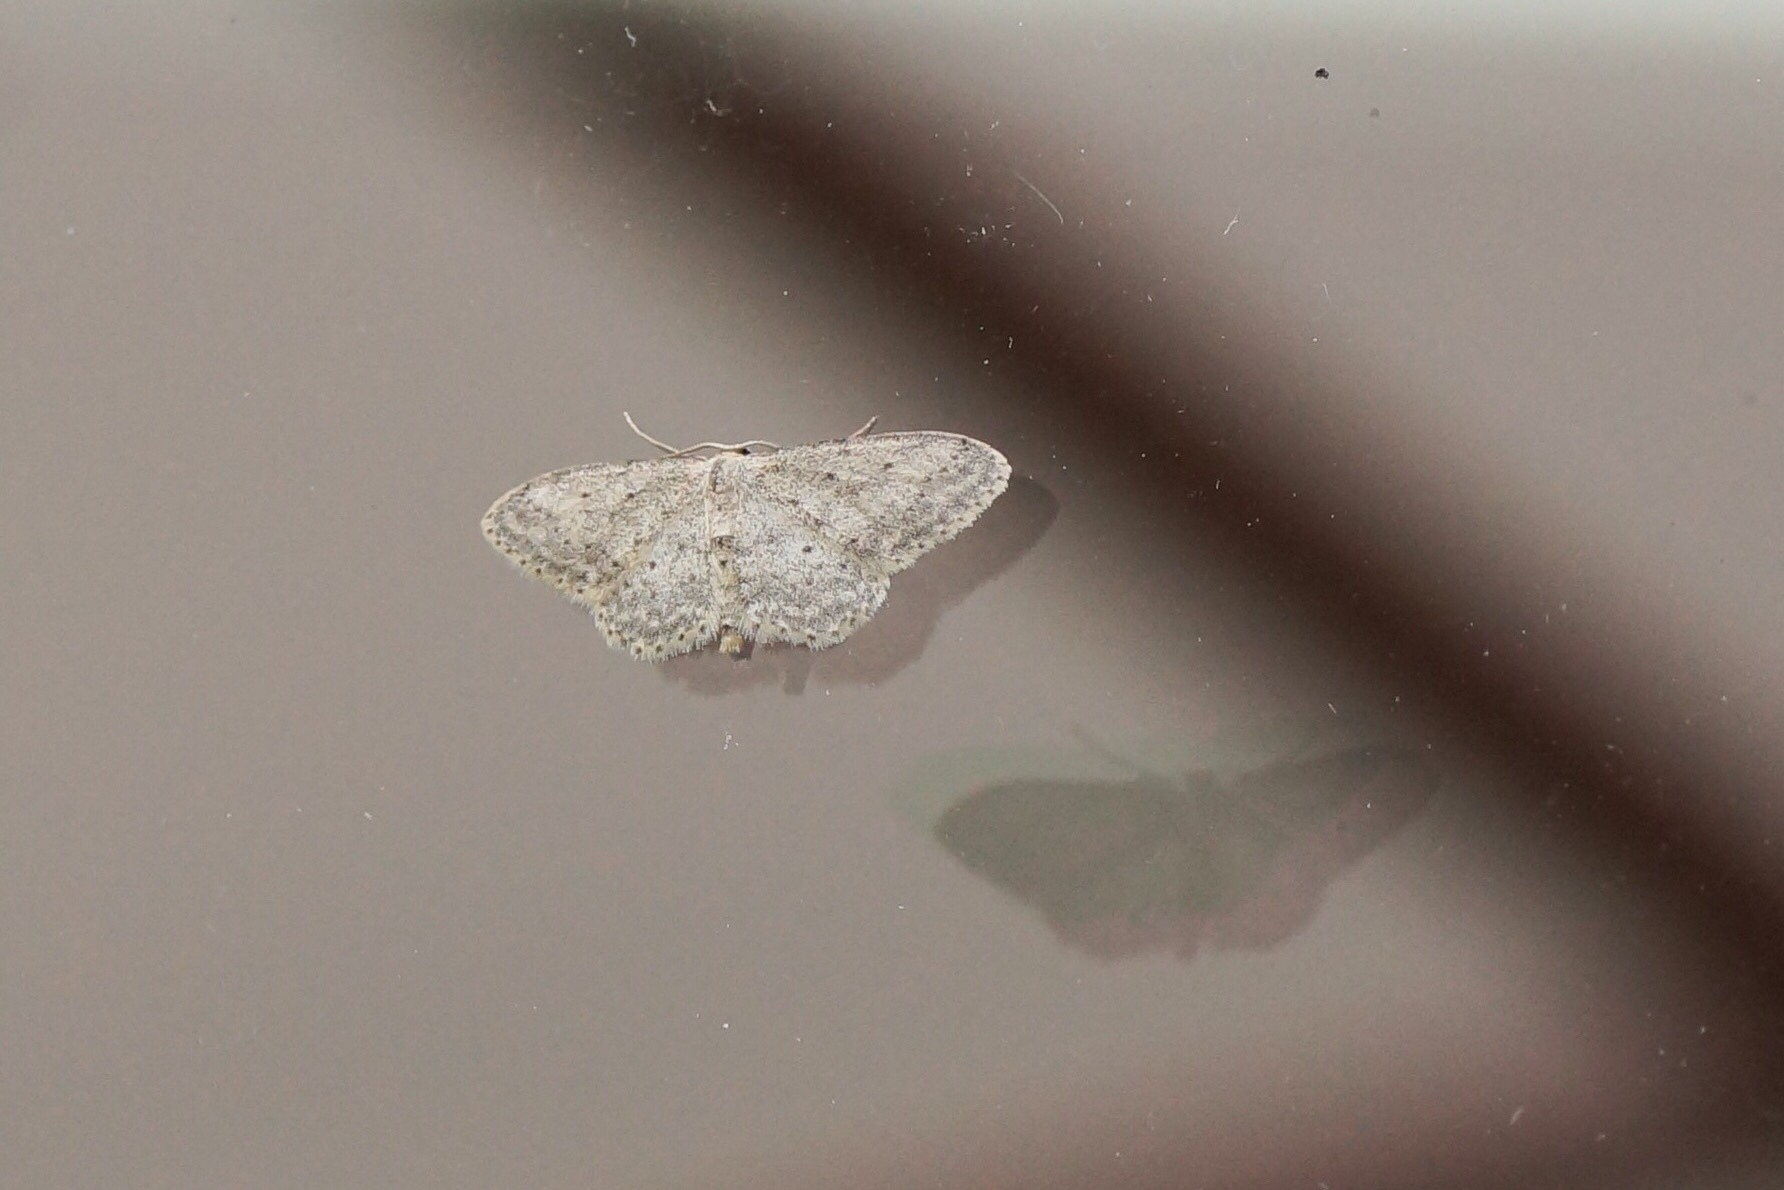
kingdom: Animalia
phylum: Arthropoda
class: Insecta
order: Lepidoptera
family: Geometridae
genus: Idaea
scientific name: Idaea seriata
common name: Small dusty wave
